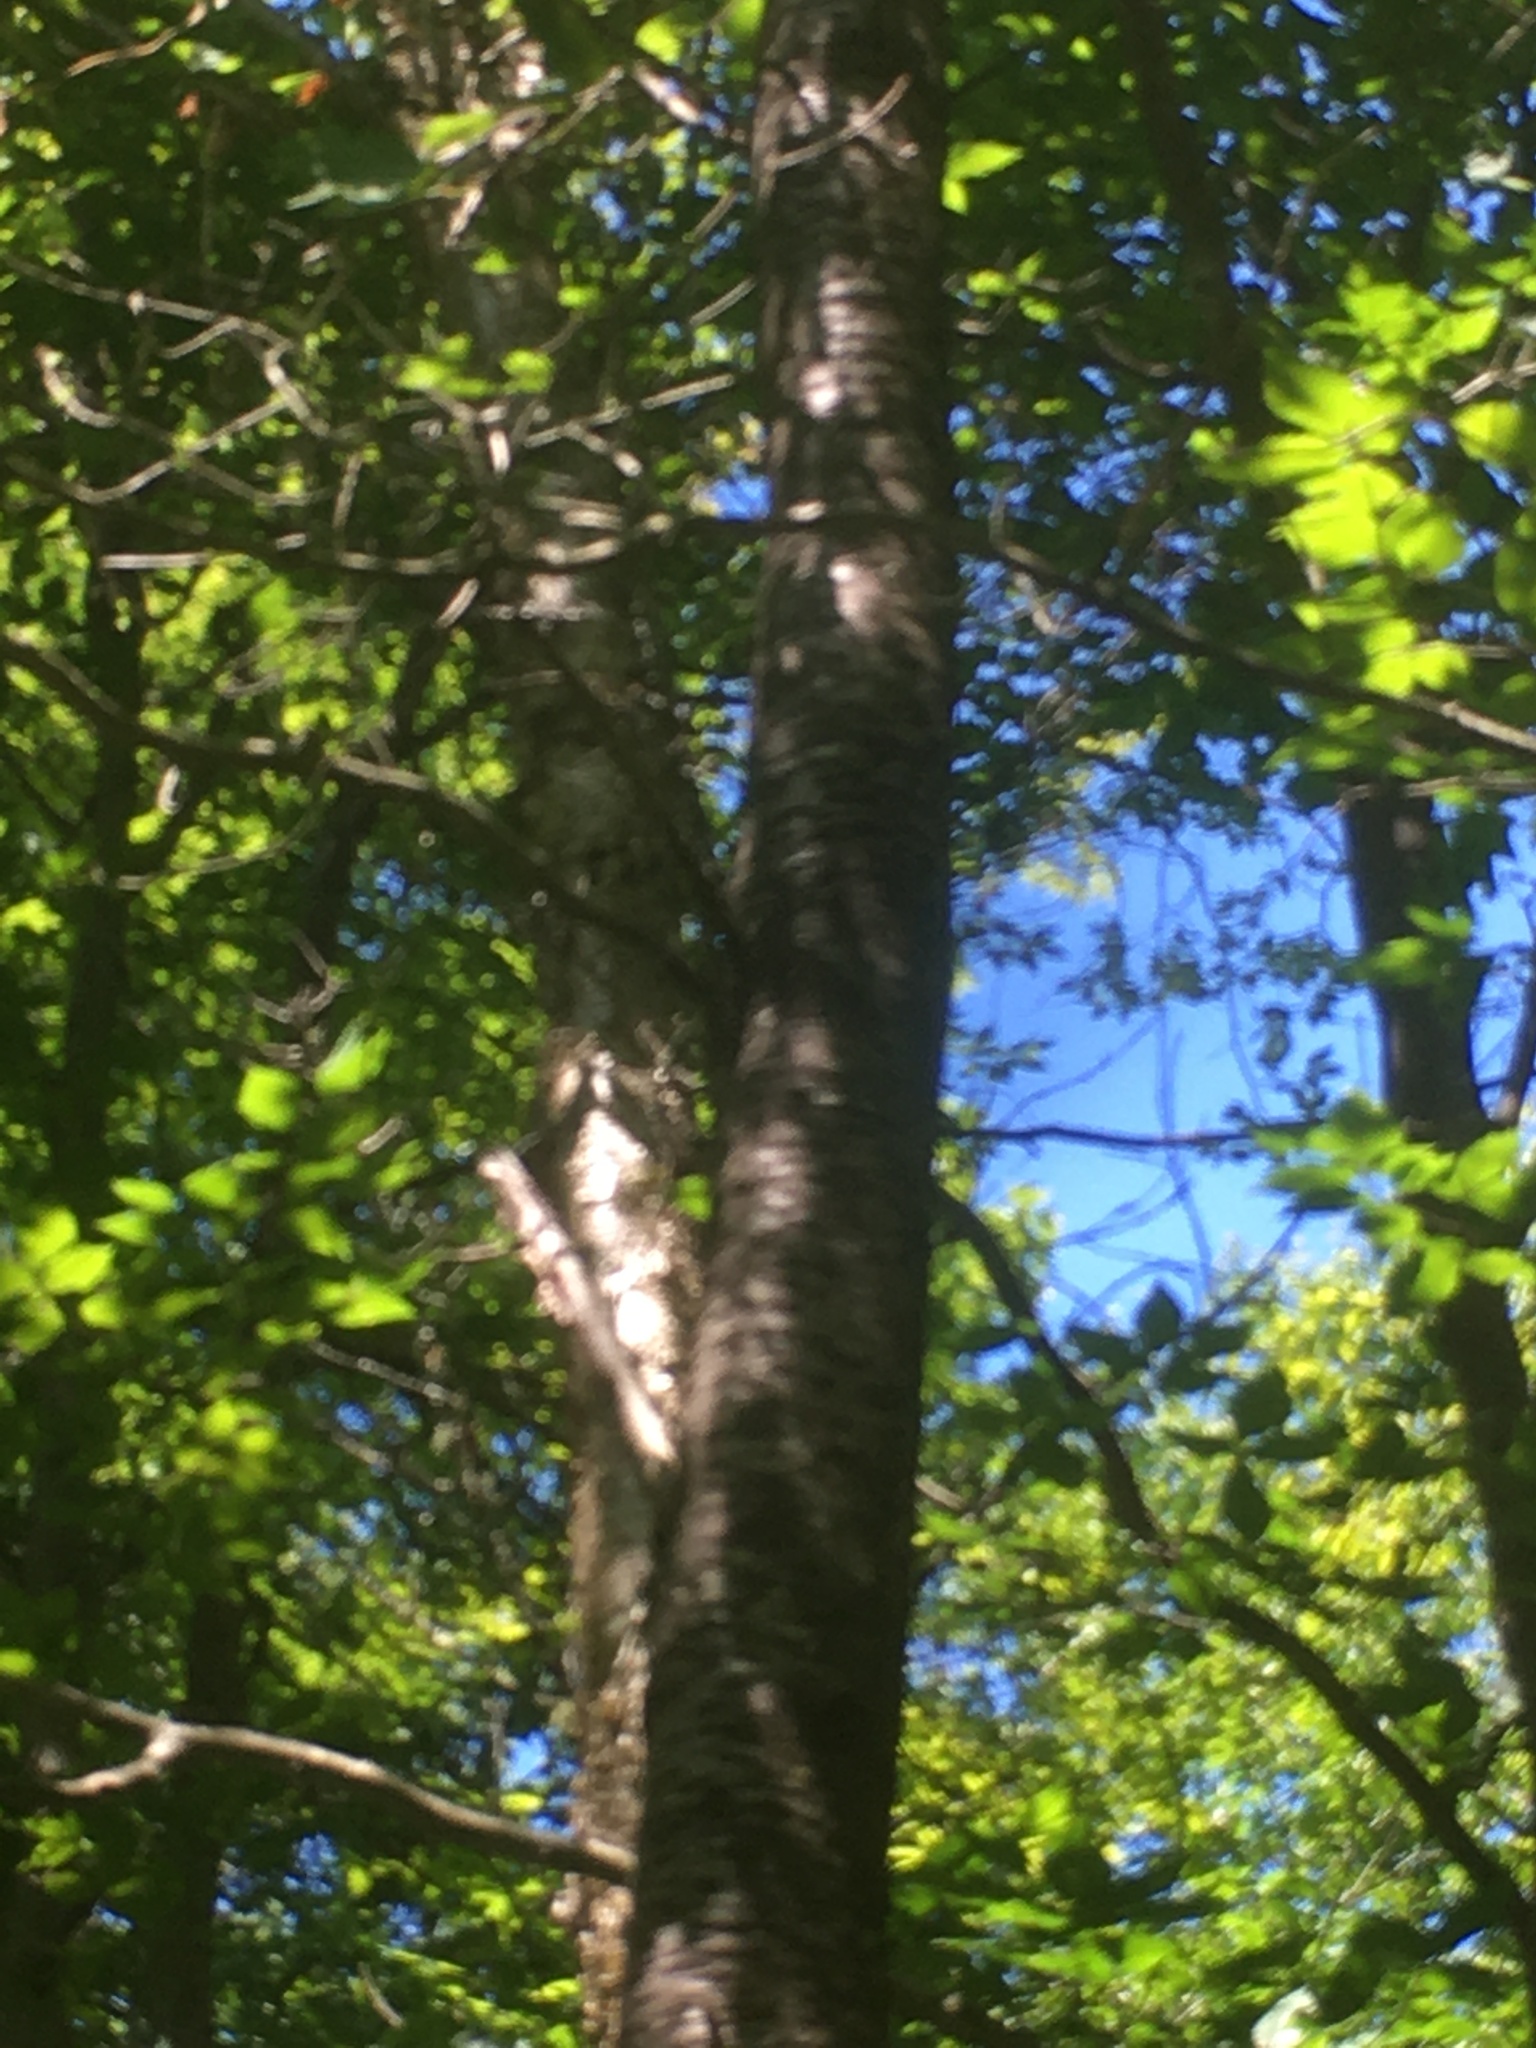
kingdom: Plantae
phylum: Tracheophyta
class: Magnoliopsida
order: Rosales
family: Rosaceae
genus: Prunus
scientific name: Prunus pensylvanica
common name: Pin cherry
